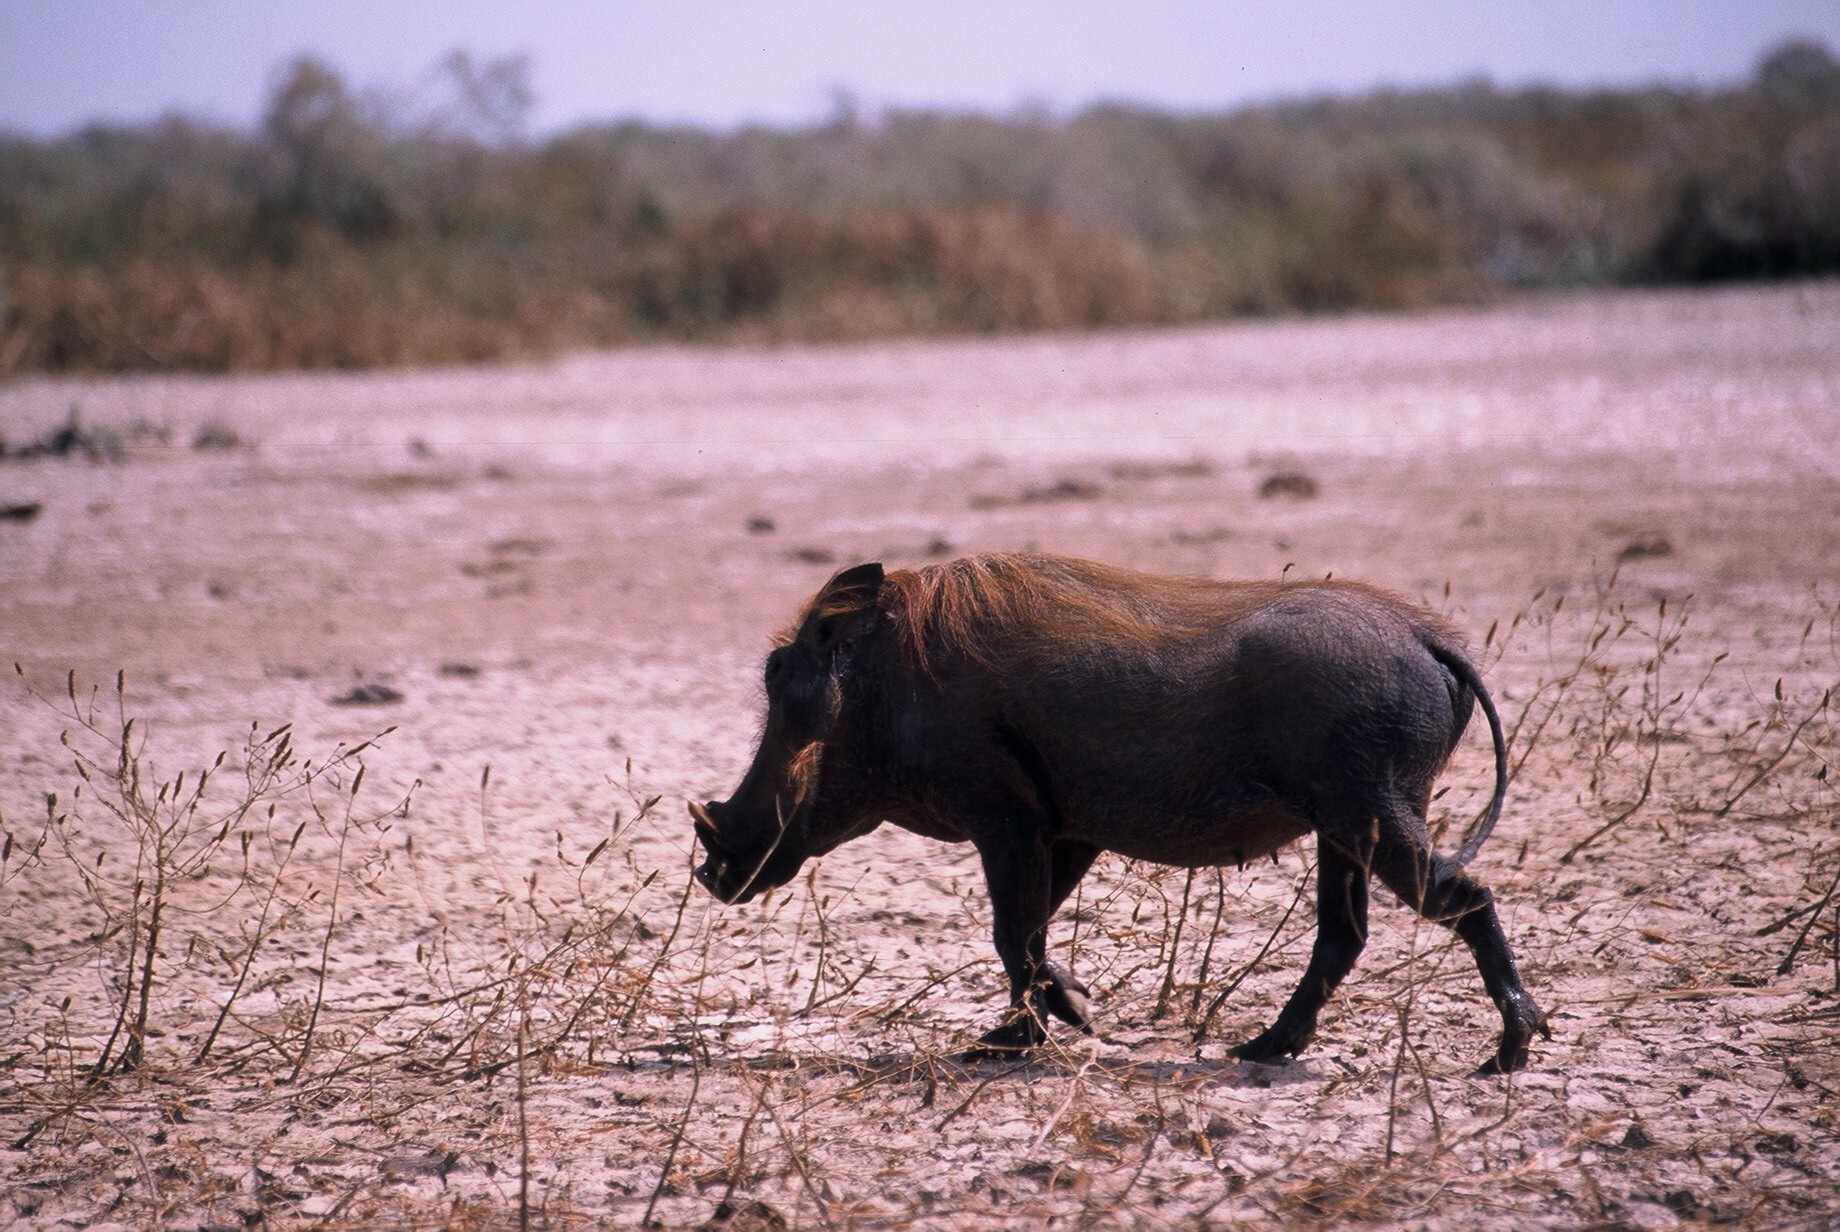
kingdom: Animalia
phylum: Chordata
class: Mammalia
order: Artiodactyla
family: Suidae
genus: Phacochoerus
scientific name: Phacochoerus africanus
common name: Common warthog
